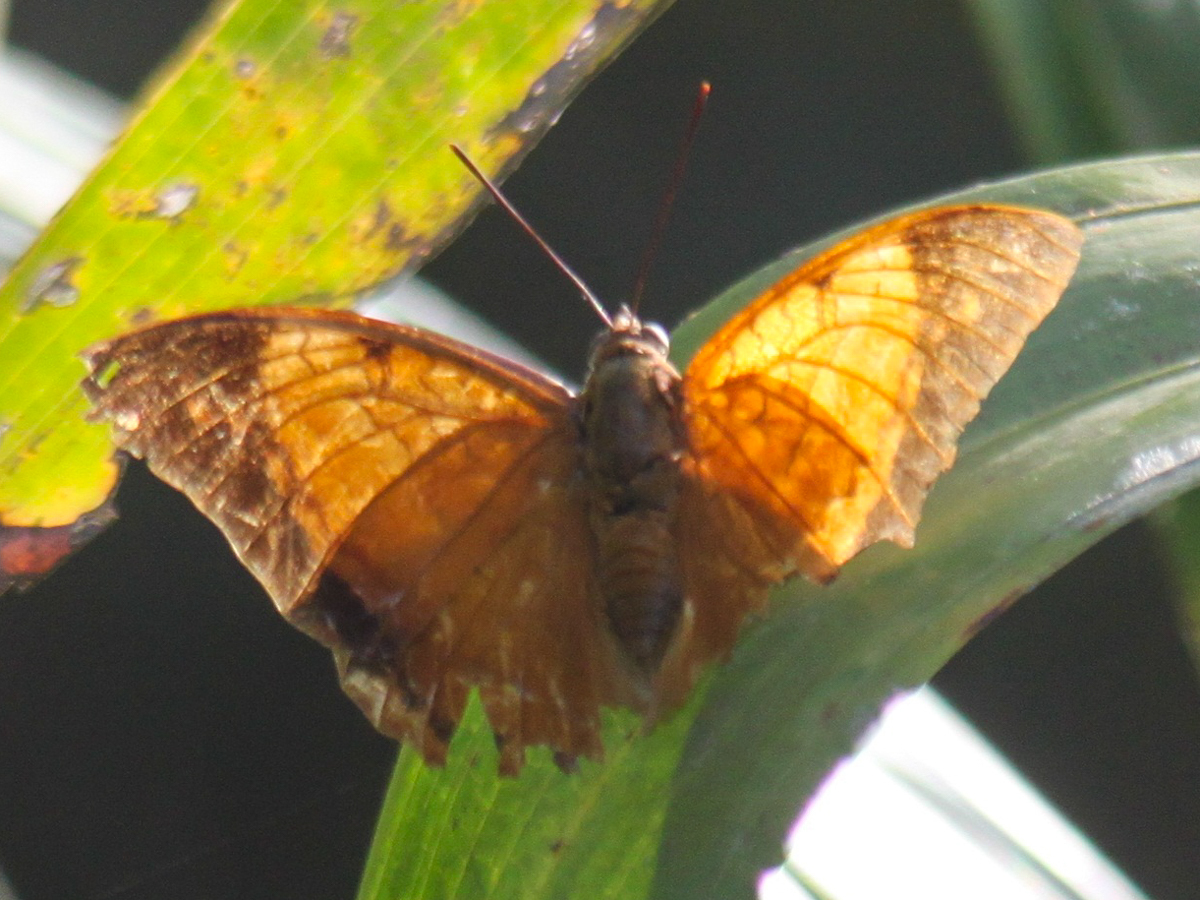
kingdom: Animalia
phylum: Arthropoda
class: Insecta
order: Lepidoptera
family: Nymphalidae
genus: Charaxes
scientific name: Charaxes bernardus
